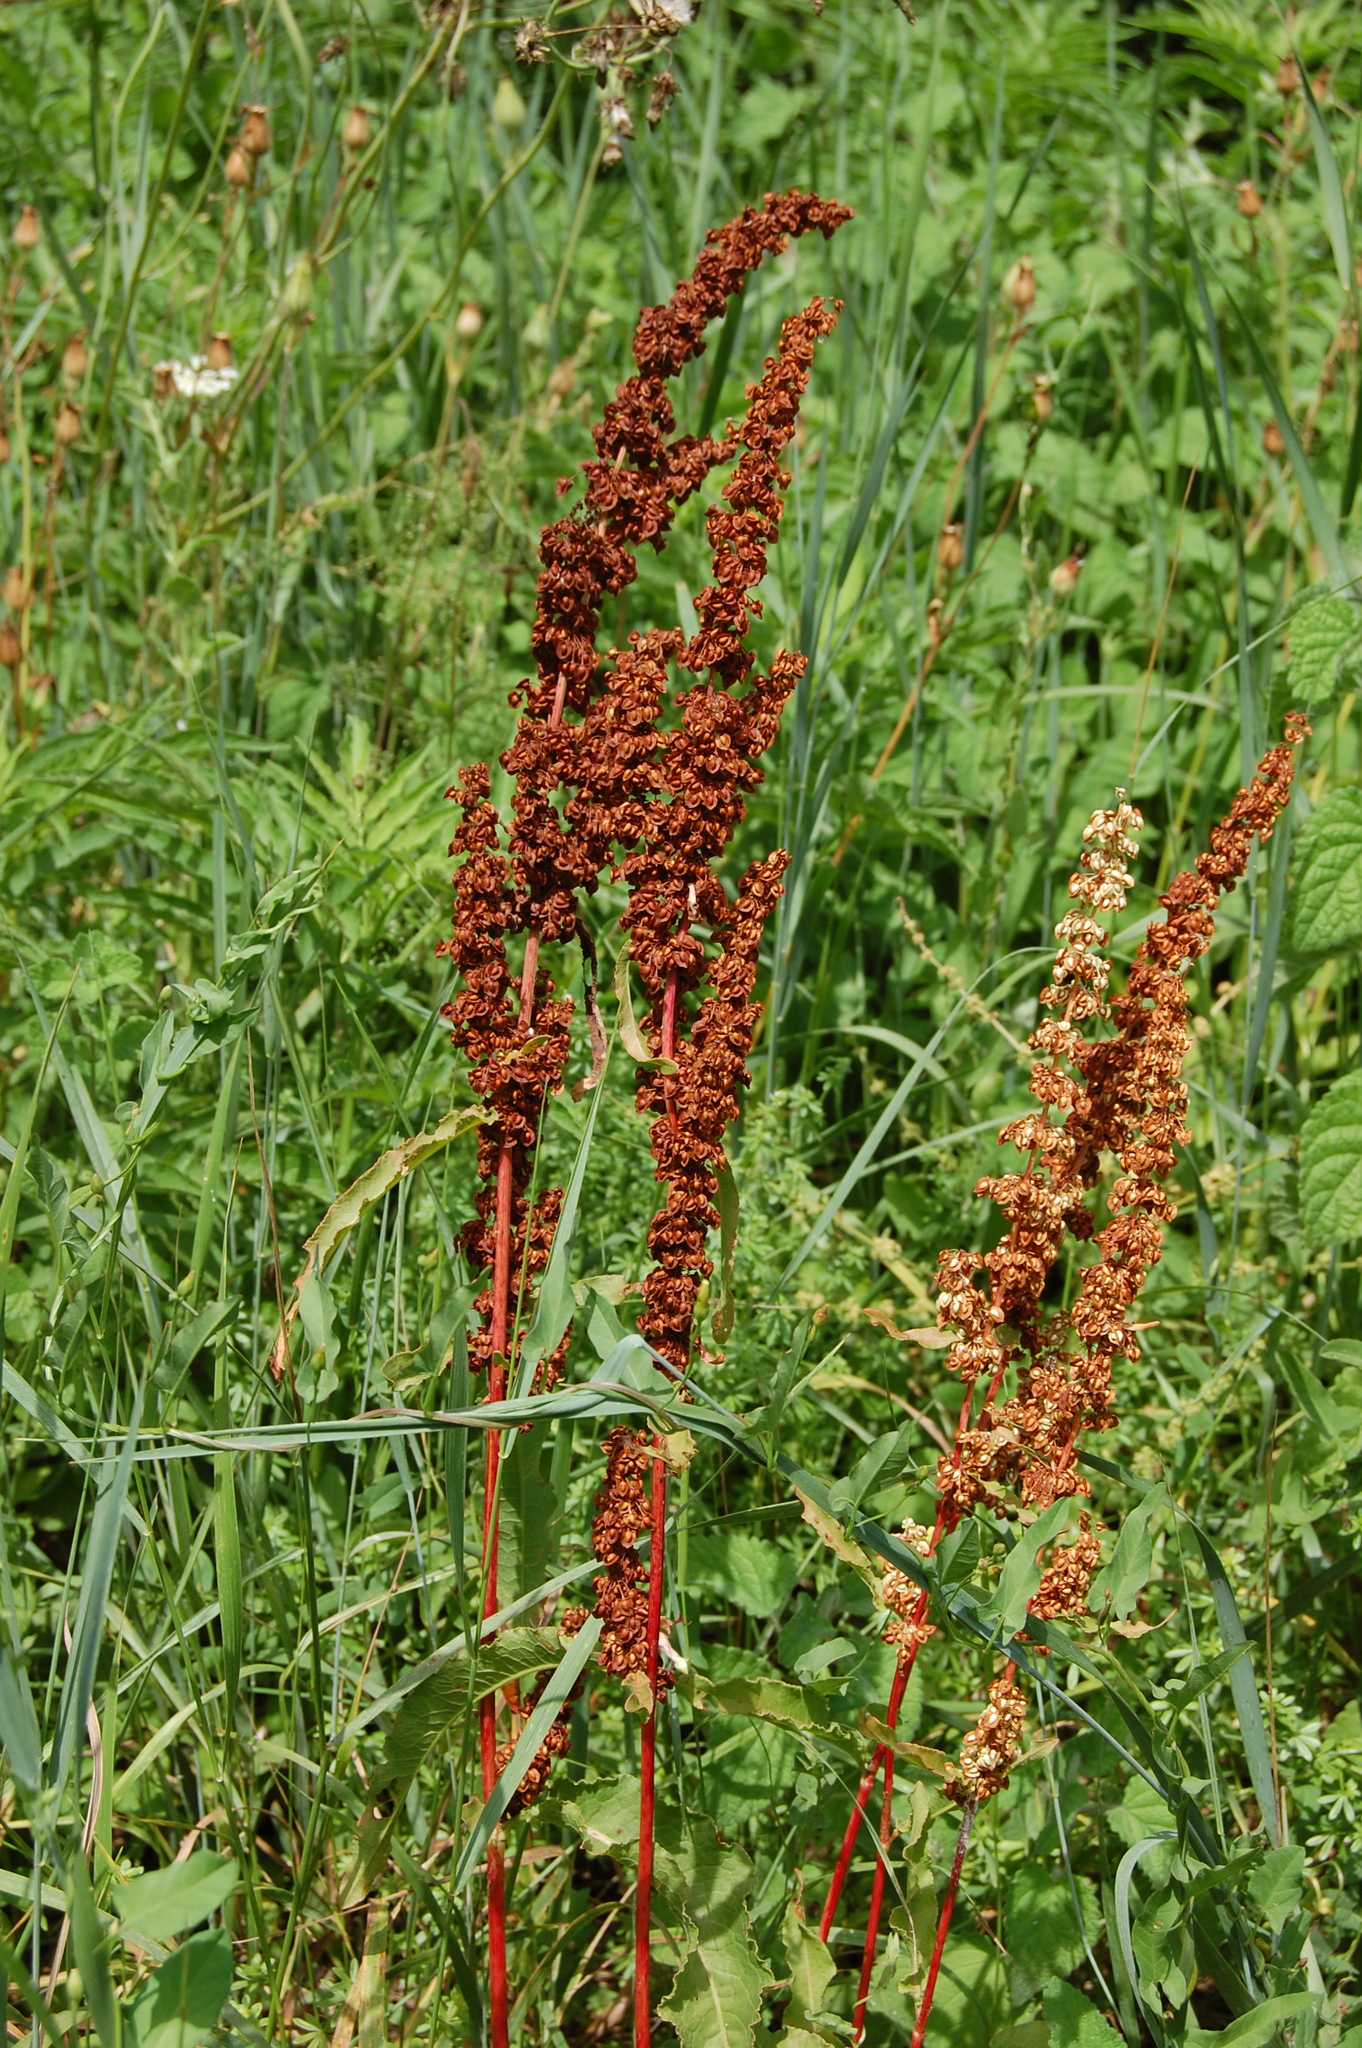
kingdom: Plantae
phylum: Tracheophyta
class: Magnoliopsida
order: Caryophyllales
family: Polygonaceae
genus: Rumex
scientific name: Rumex crispus
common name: Curled dock
